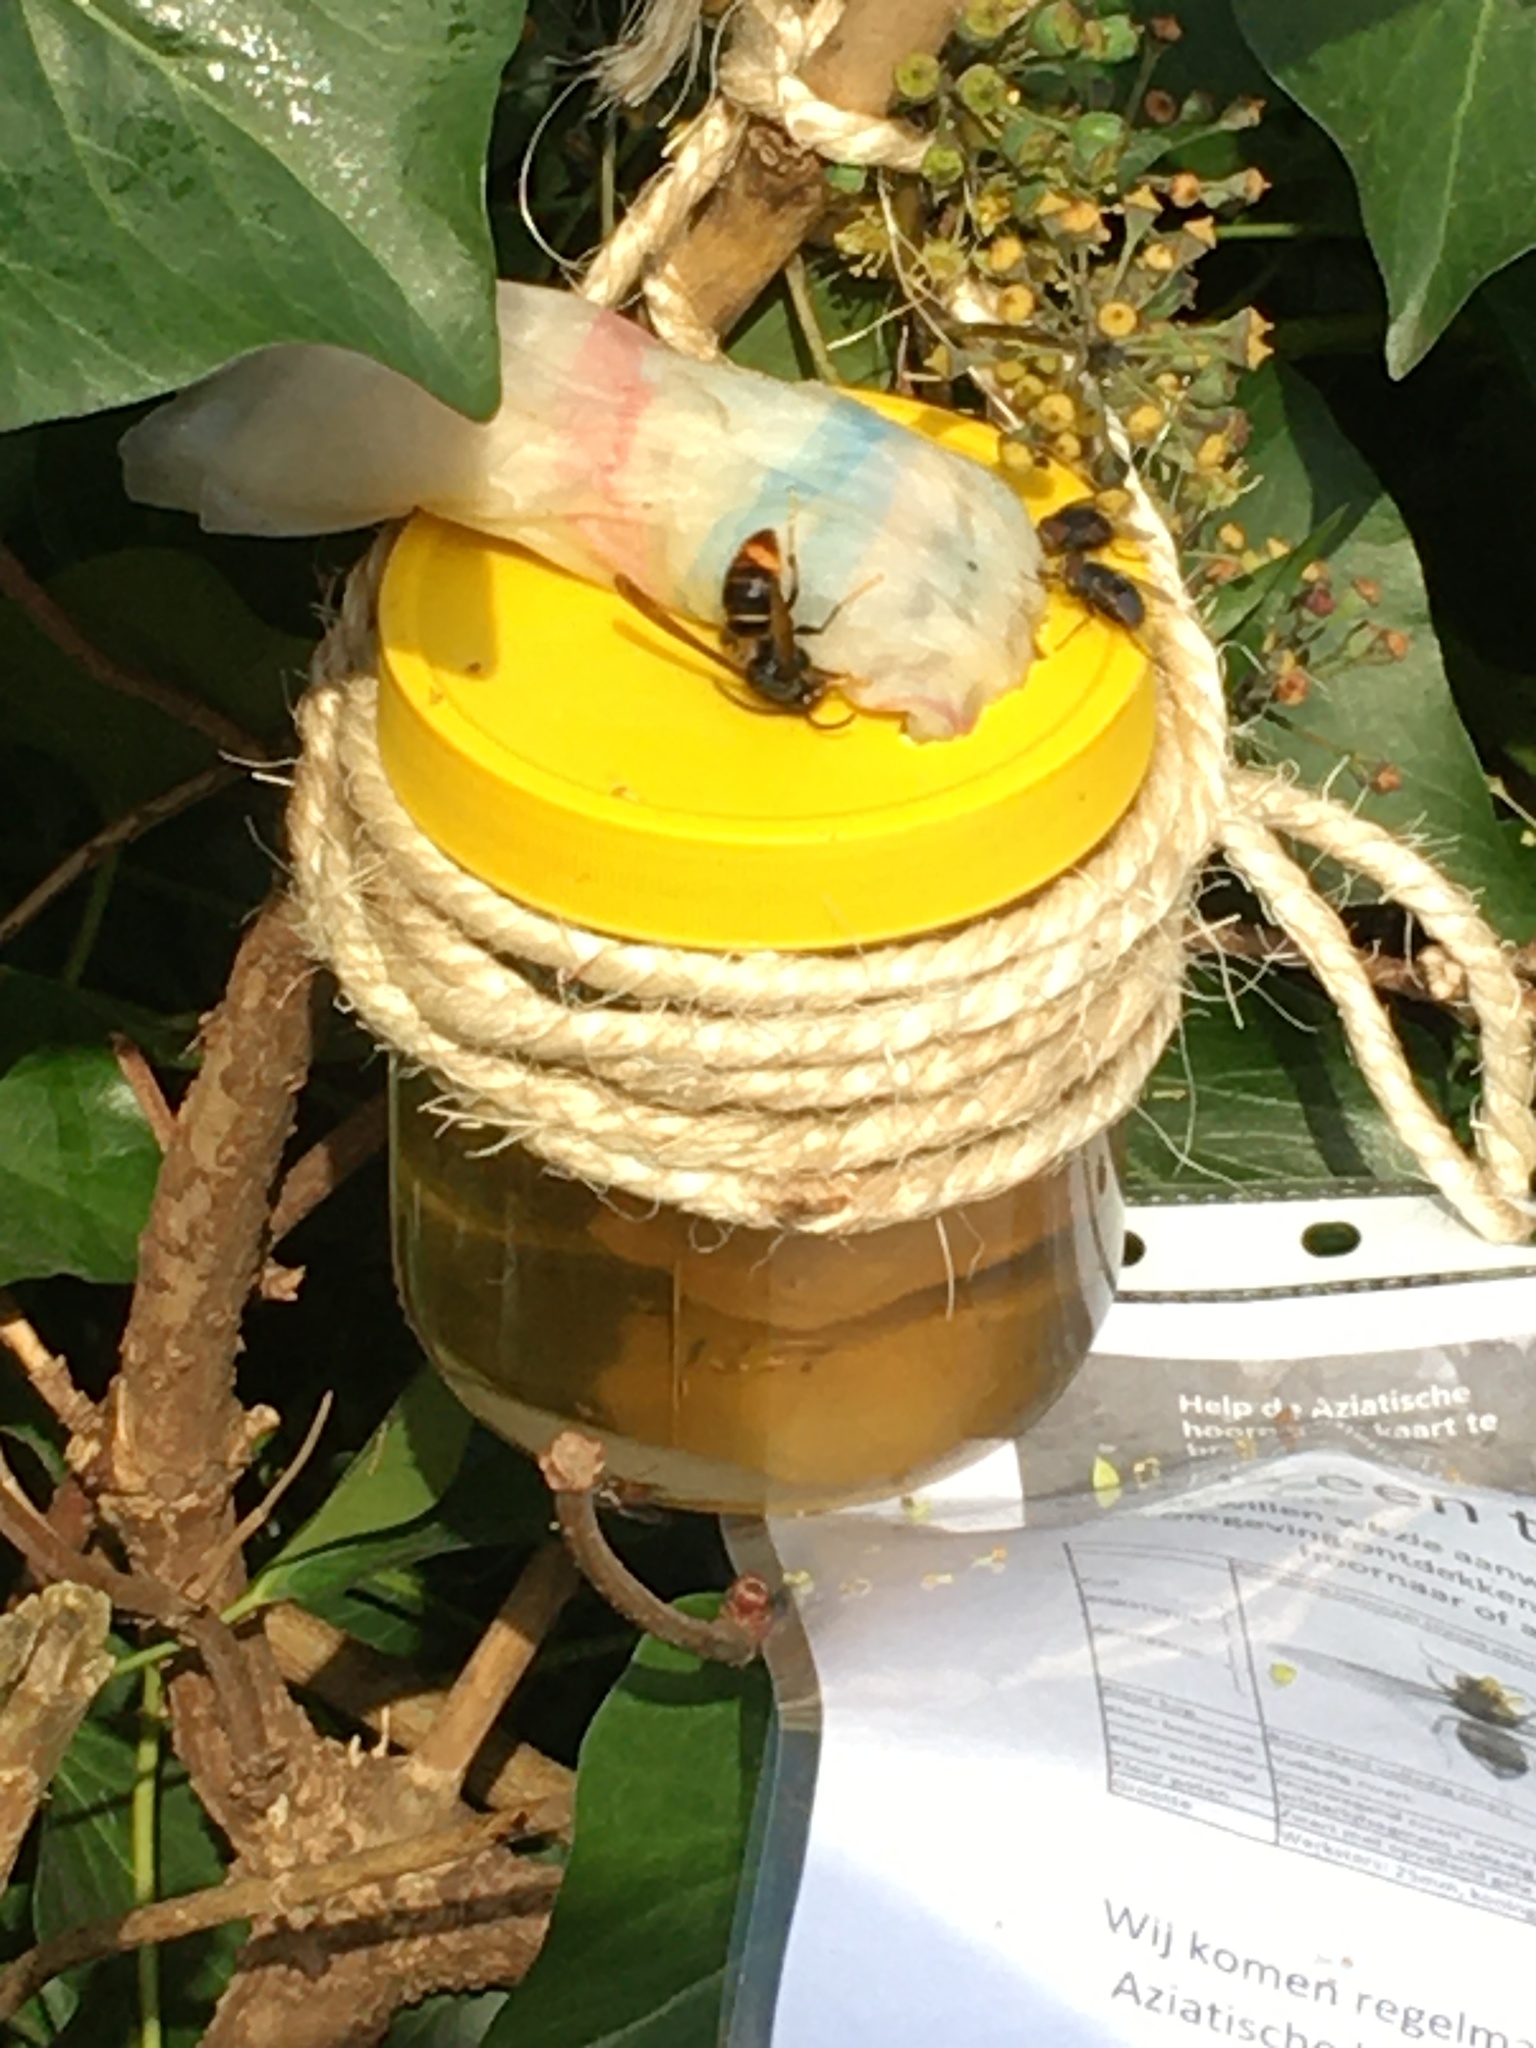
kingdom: Animalia
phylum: Arthropoda
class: Insecta
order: Hymenoptera
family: Vespidae
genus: Vespa
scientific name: Vespa velutina
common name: Asian hornet
